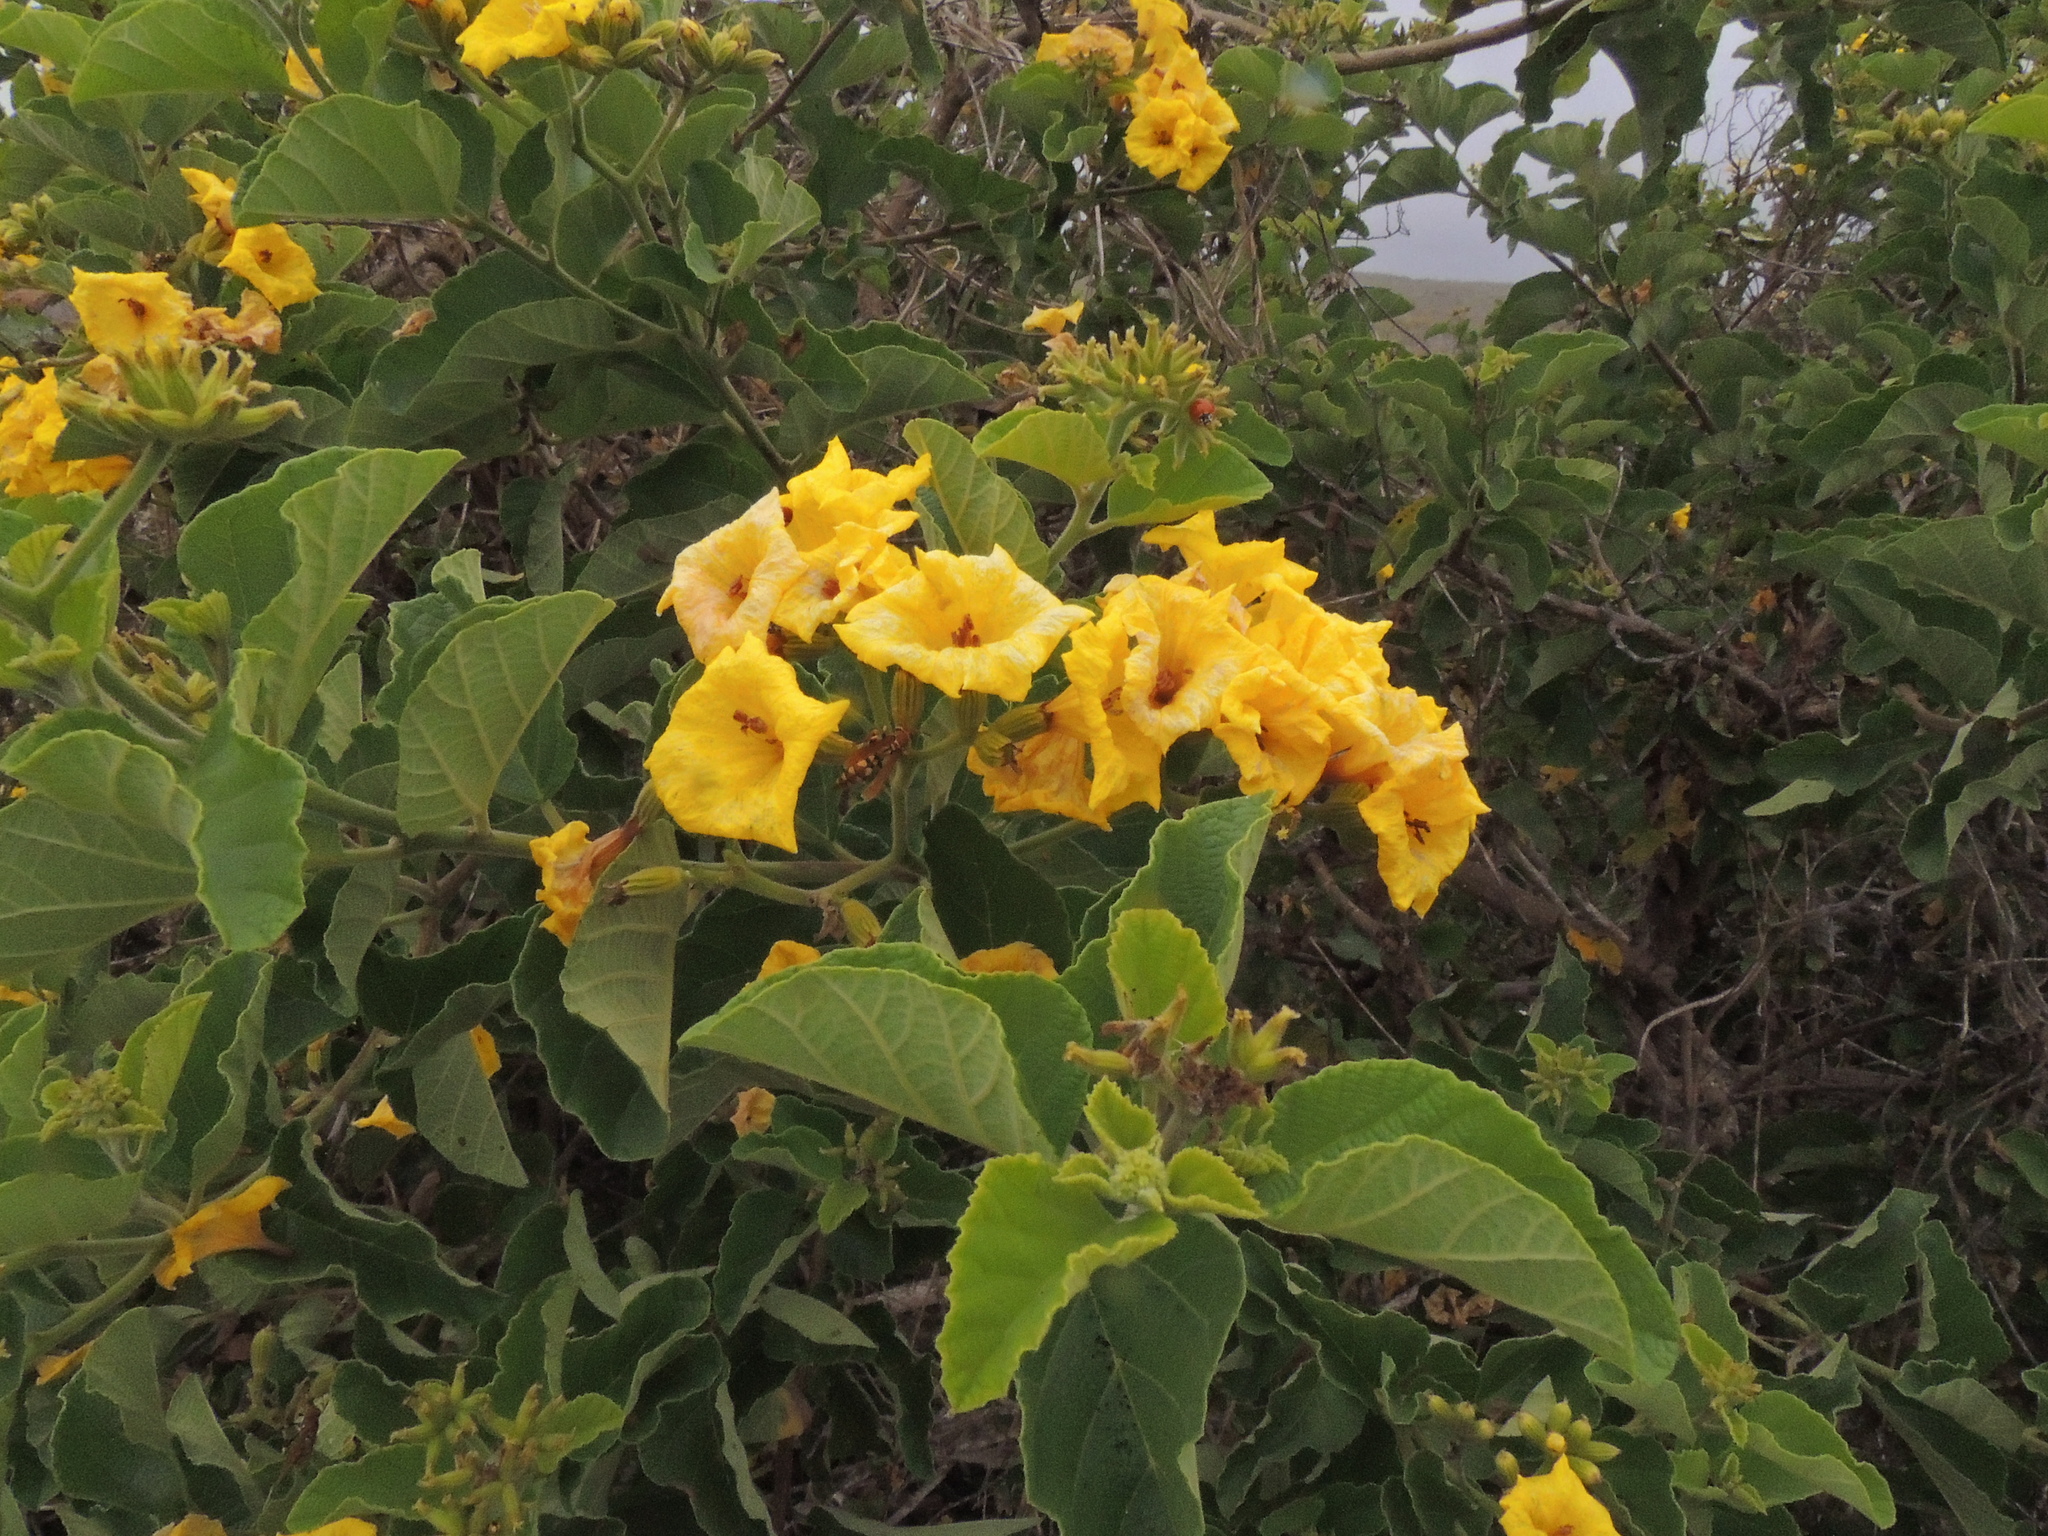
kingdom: Plantae
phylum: Tracheophyta
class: Magnoliopsida
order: Boraginales
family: Cordiaceae
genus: Cordia
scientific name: Cordia lutea
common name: Yellow geiger
